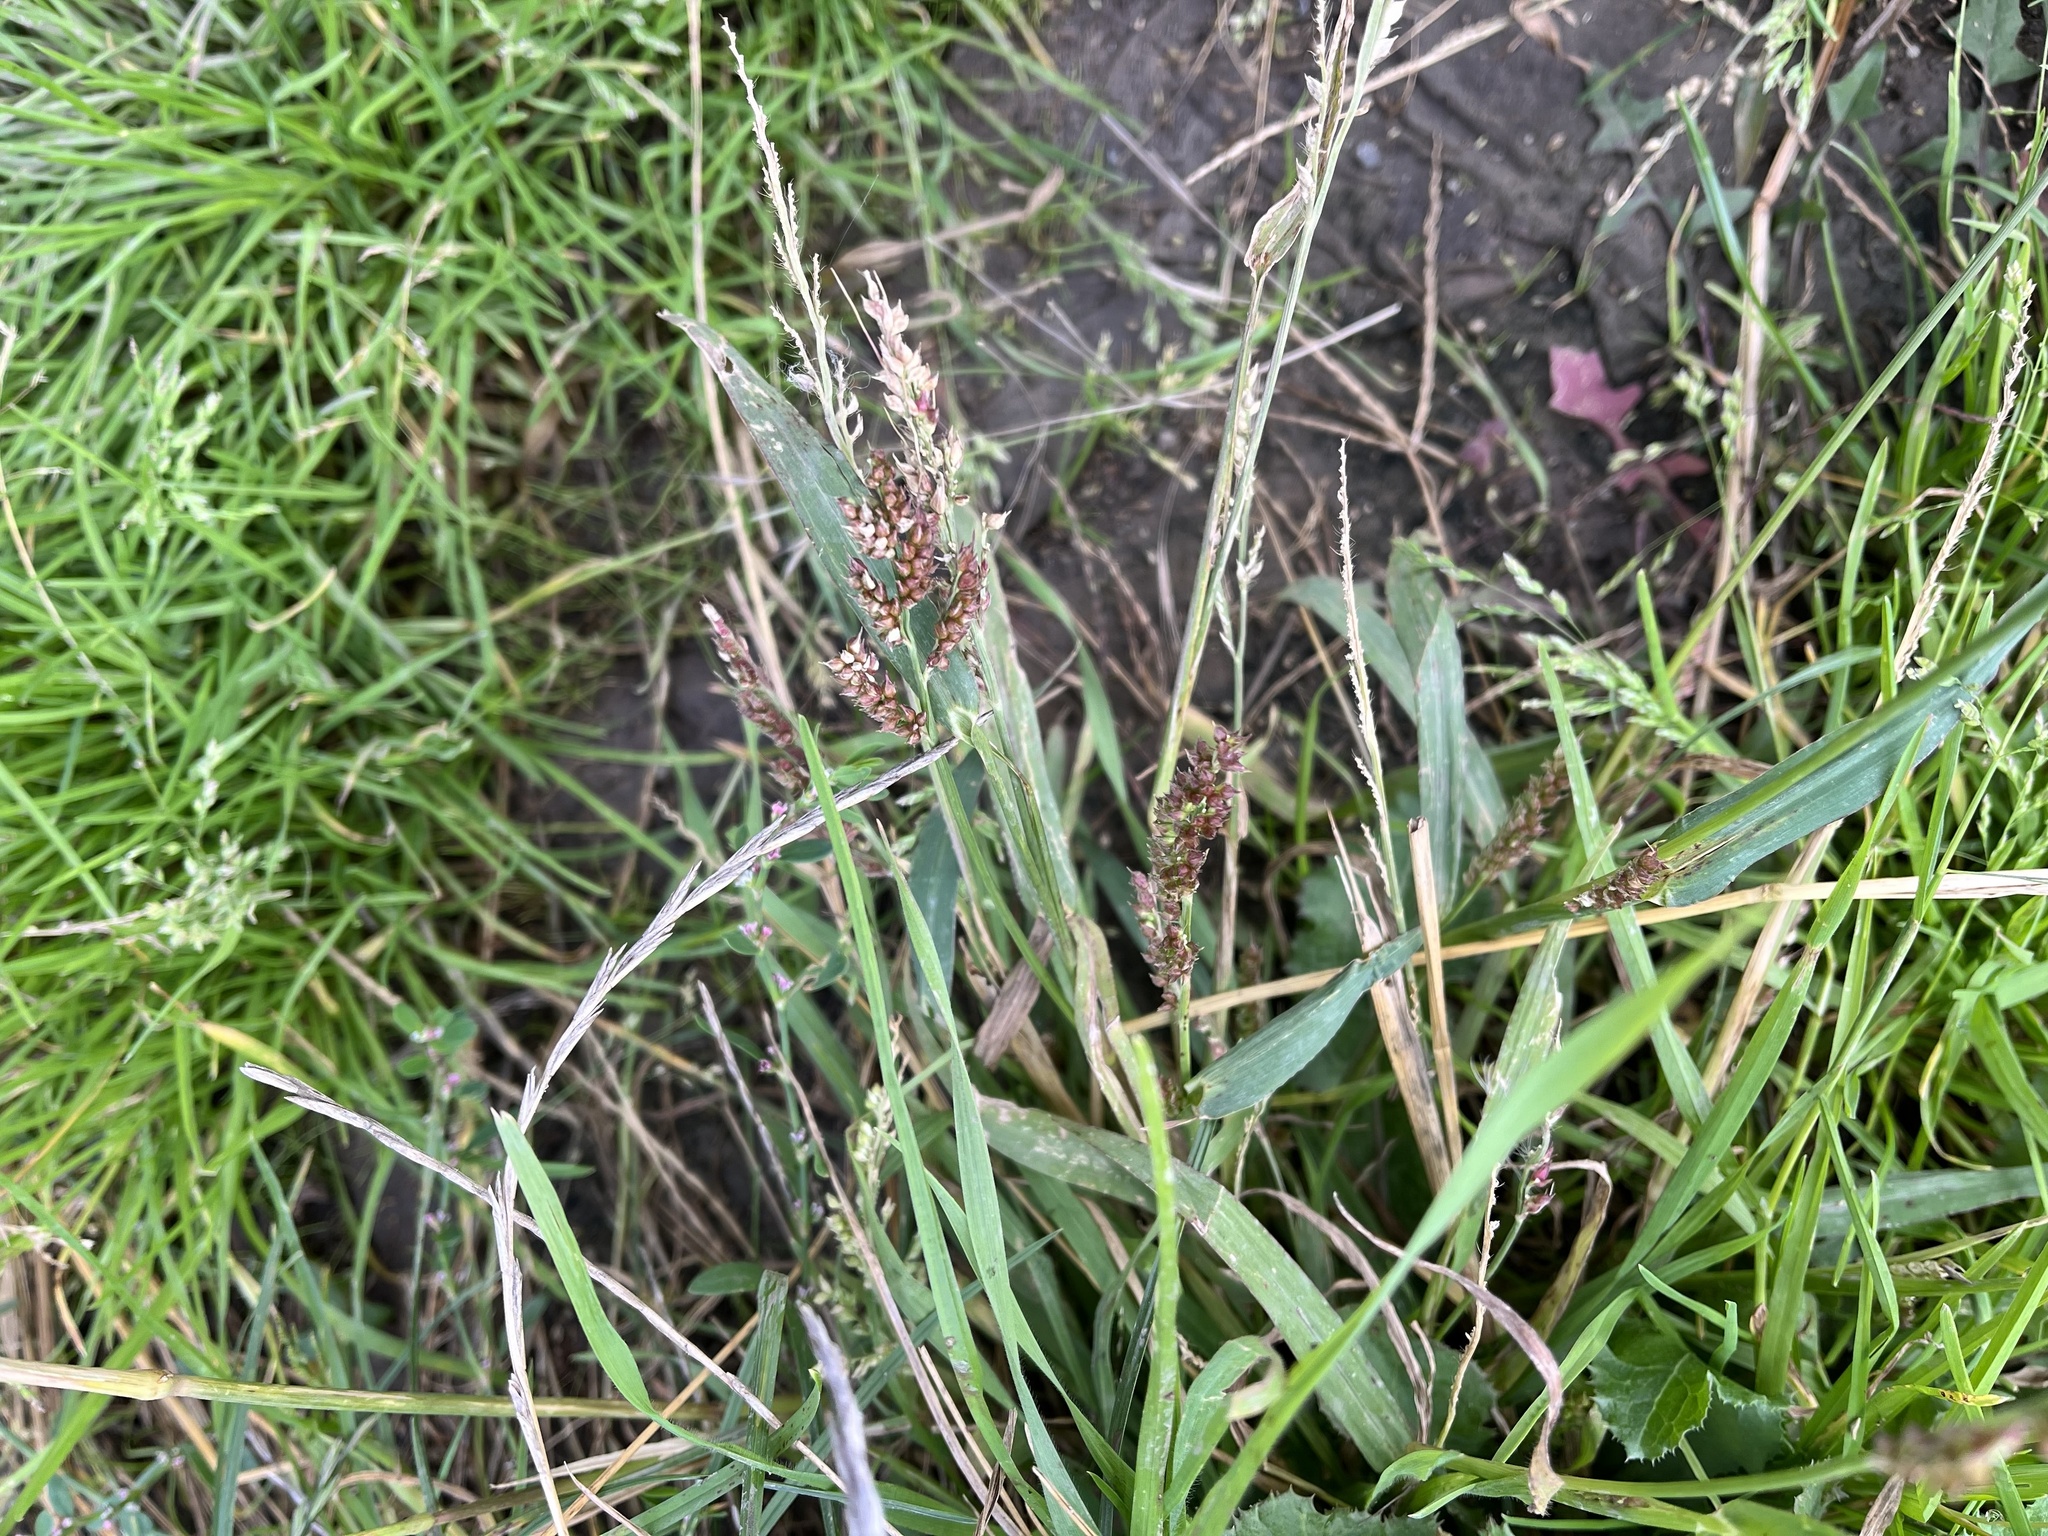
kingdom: Plantae
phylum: Tracheophyta
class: Liliopsida
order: Poales
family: Poaceae
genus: Echinochloa
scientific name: Echinochloa crus-galli
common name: Cockspur
